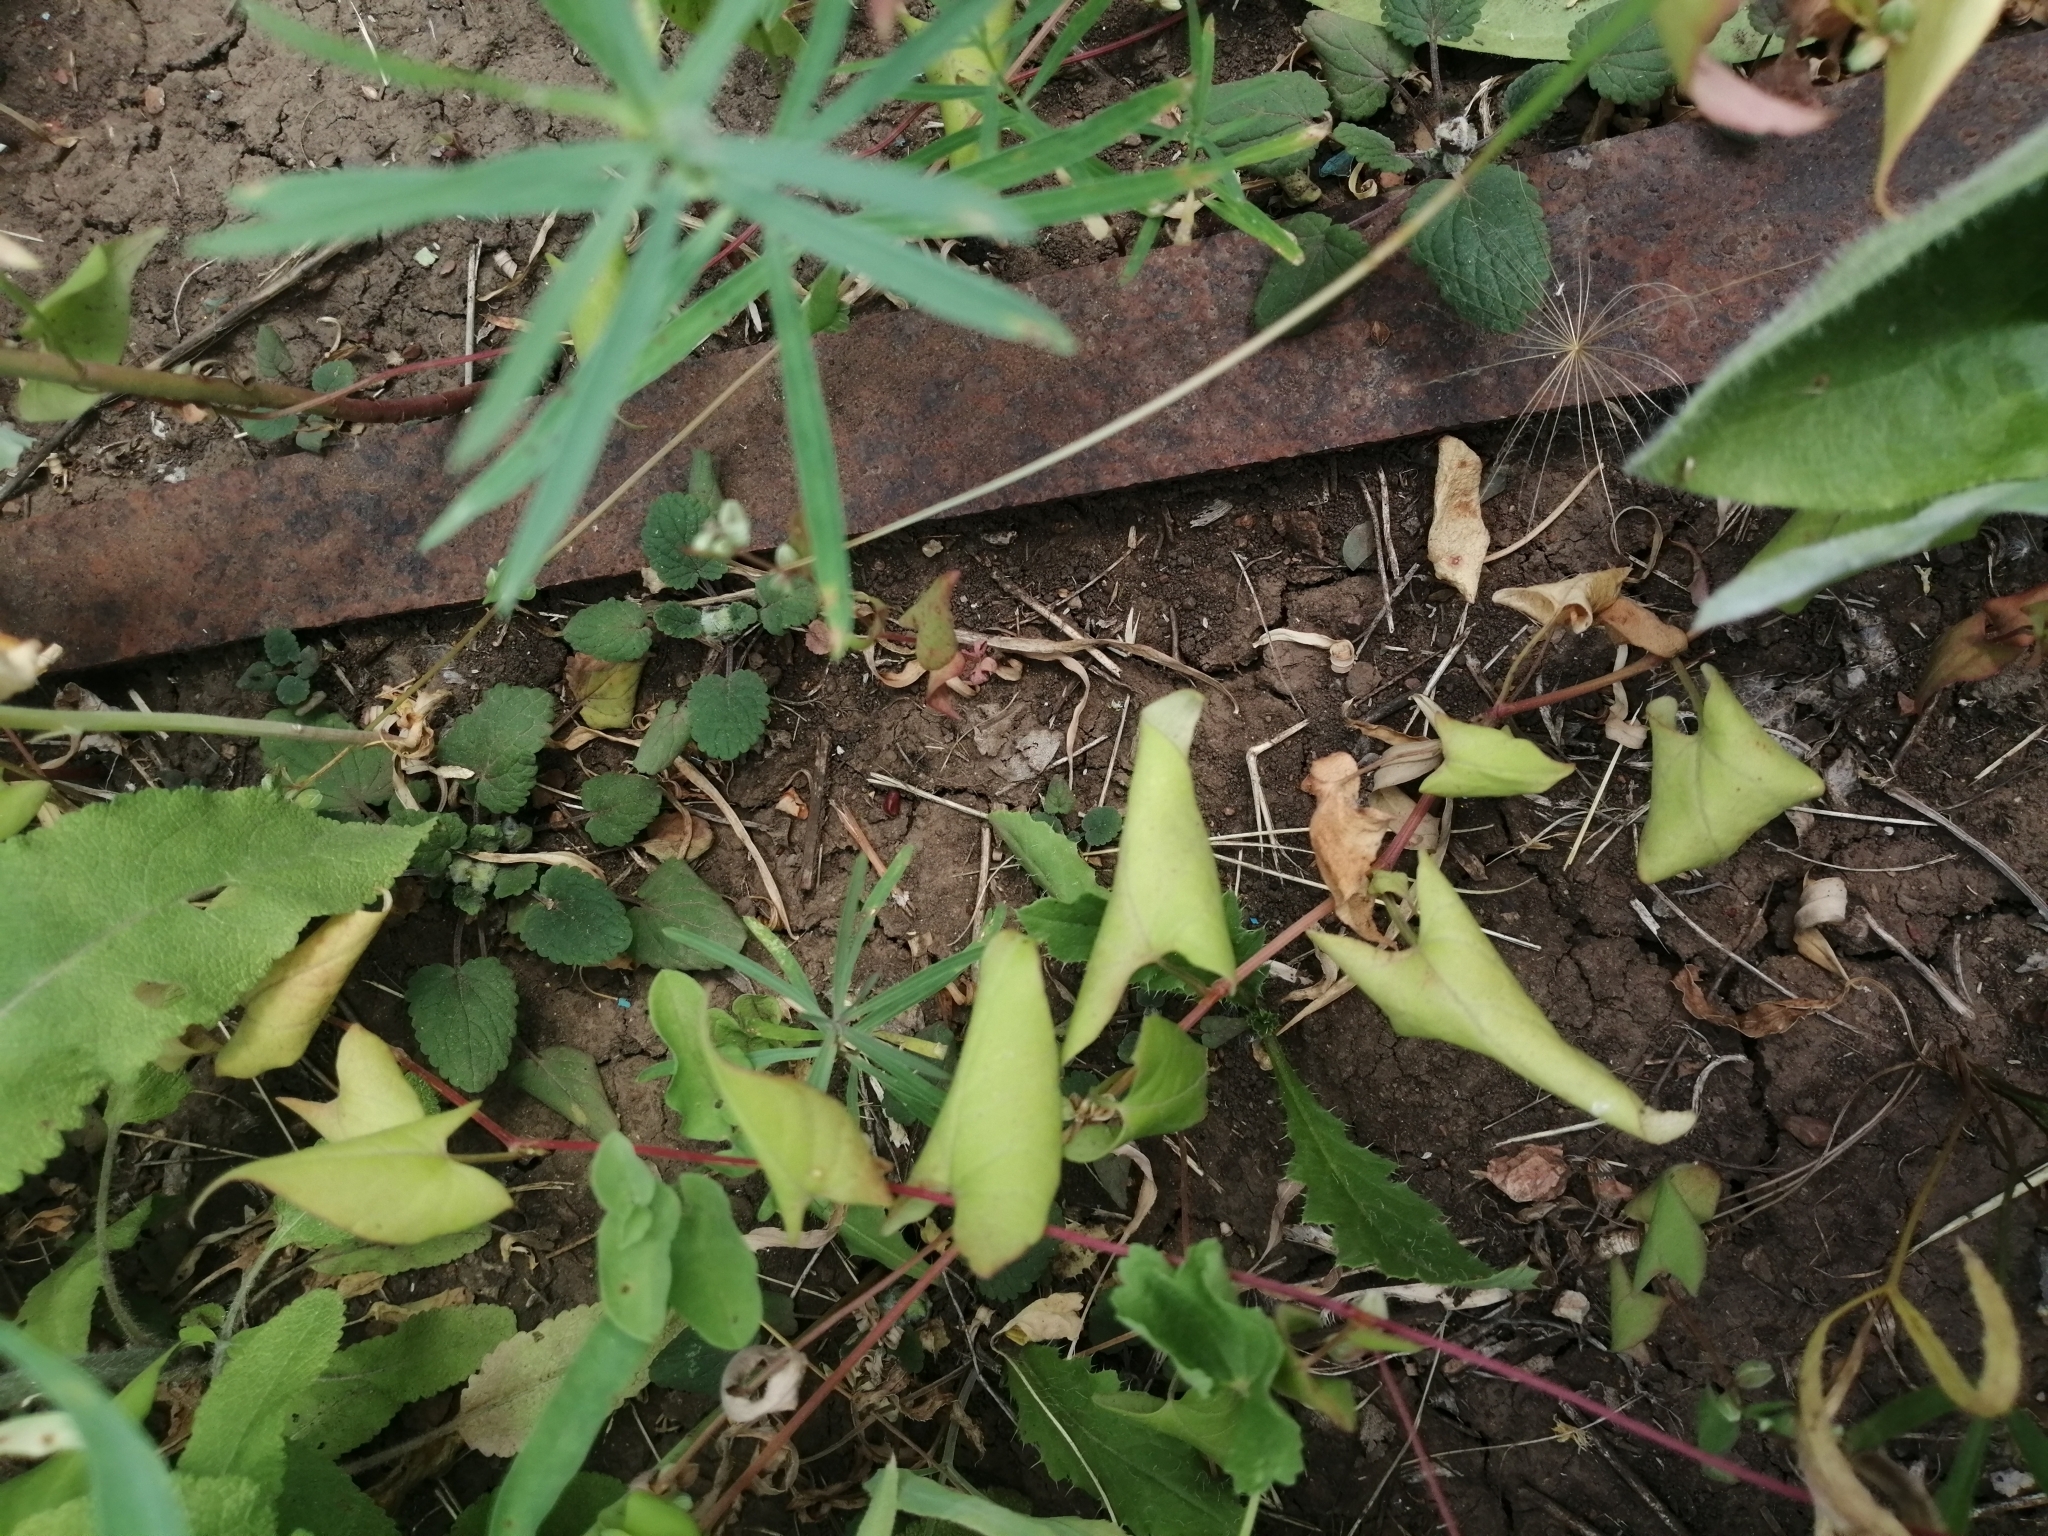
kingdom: Plantae
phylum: Tracheophyta
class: Magnoliopsida
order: Caryophyllales
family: Polygonaceae
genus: Fallopia
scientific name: Fallopia convolvulus
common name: Black bindweed
